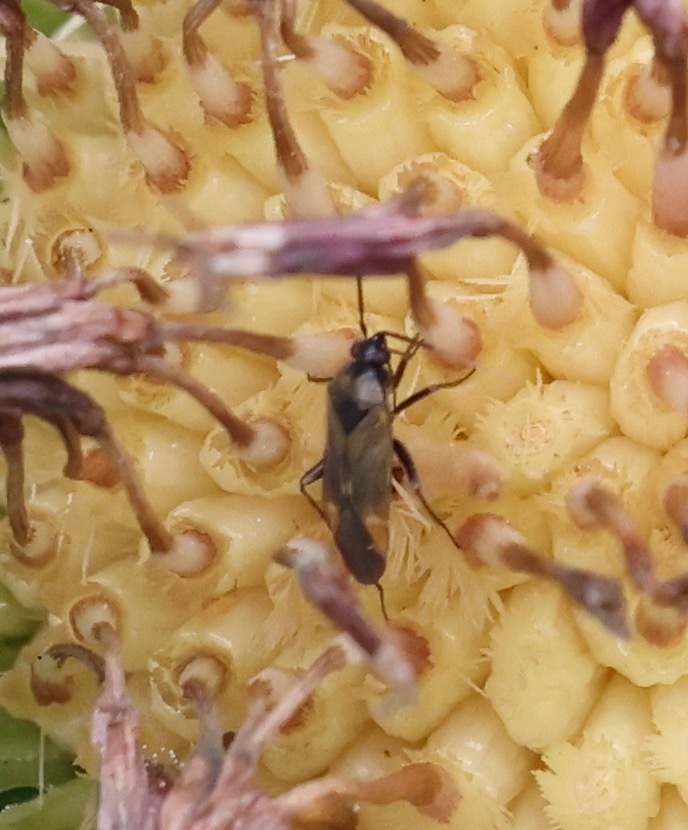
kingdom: Animalia
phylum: Arthropoda
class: Insecta
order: Hemiptera
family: Miridae
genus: Plagiognathus
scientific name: Plagiognathus arbustorum
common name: Plant bug
